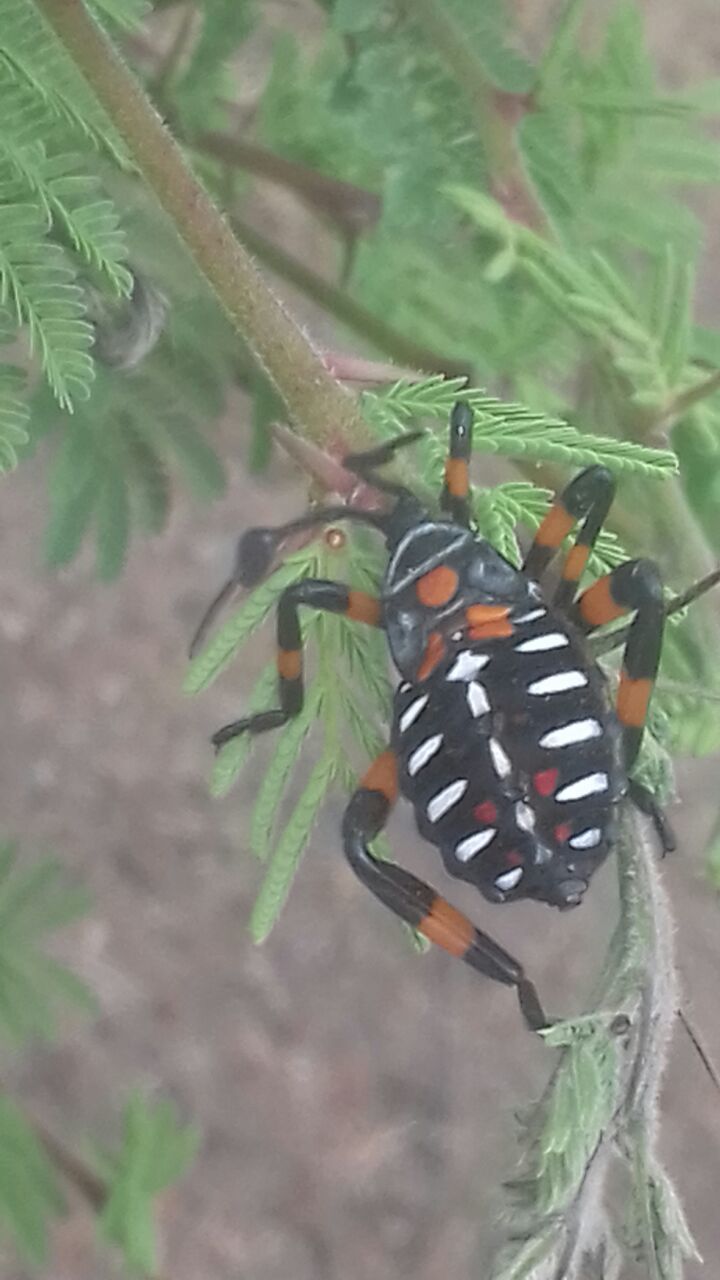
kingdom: Animalia
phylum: Arthropoda
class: Insecta
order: Hemiptera
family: Coreidae
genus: Thasus
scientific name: Thasus
